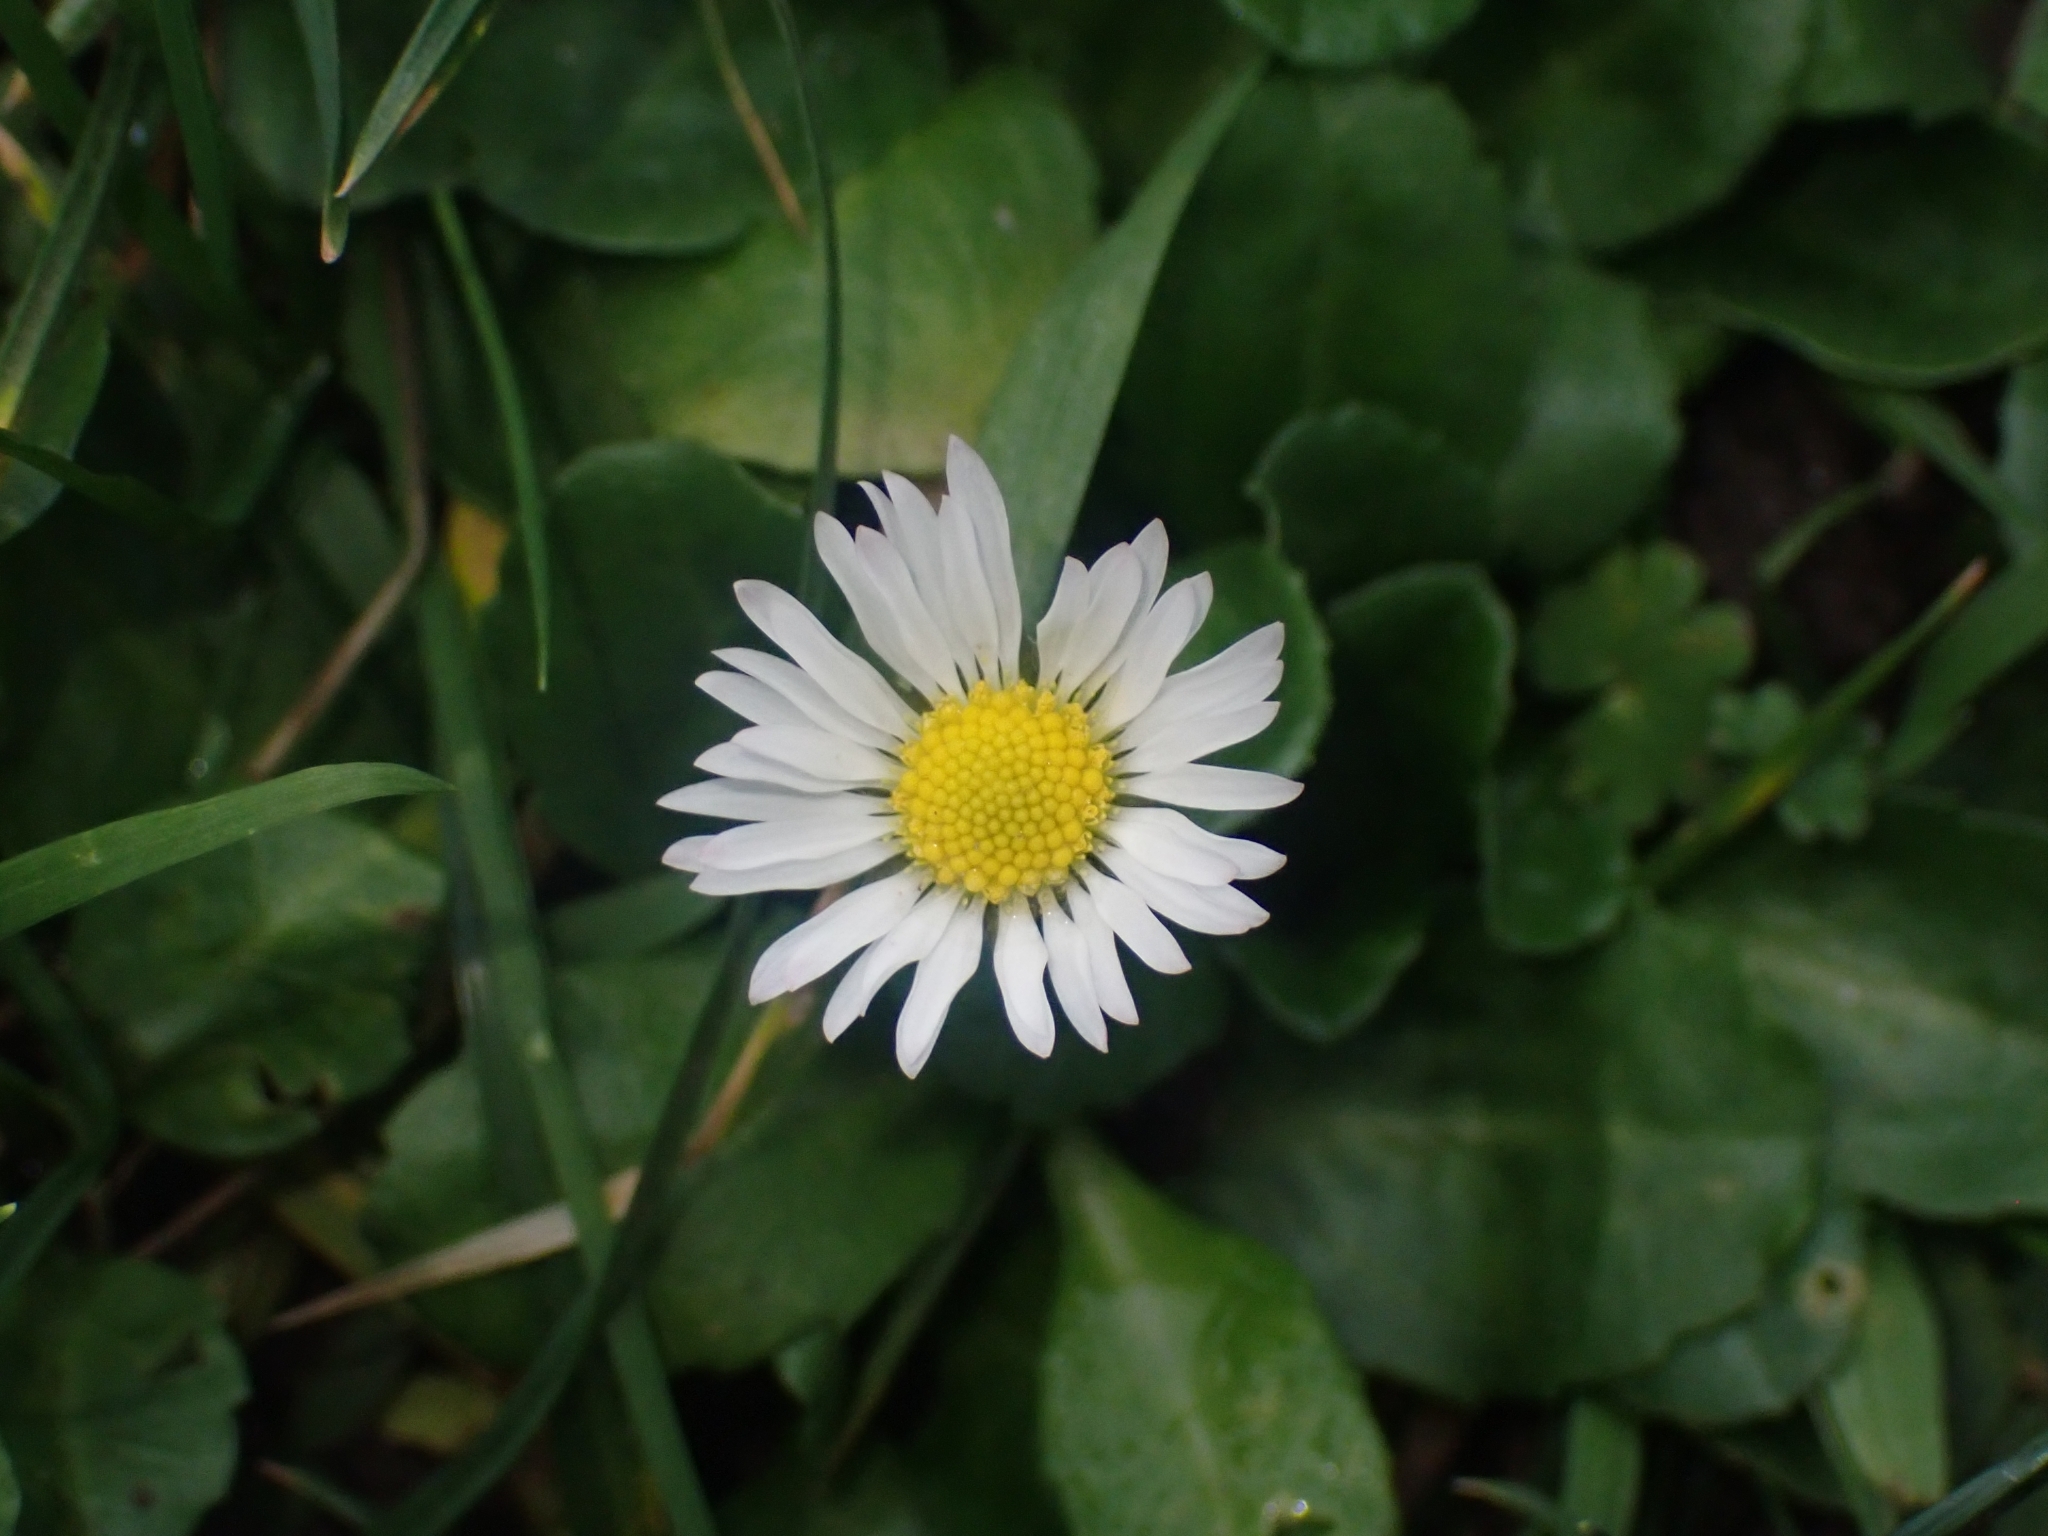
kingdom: Plantae
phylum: Tracheophyta
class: Magnoliopsida
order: Asterales
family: Asteraceae
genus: Bellis
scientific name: Bellis perennis
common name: Lawndaisy
